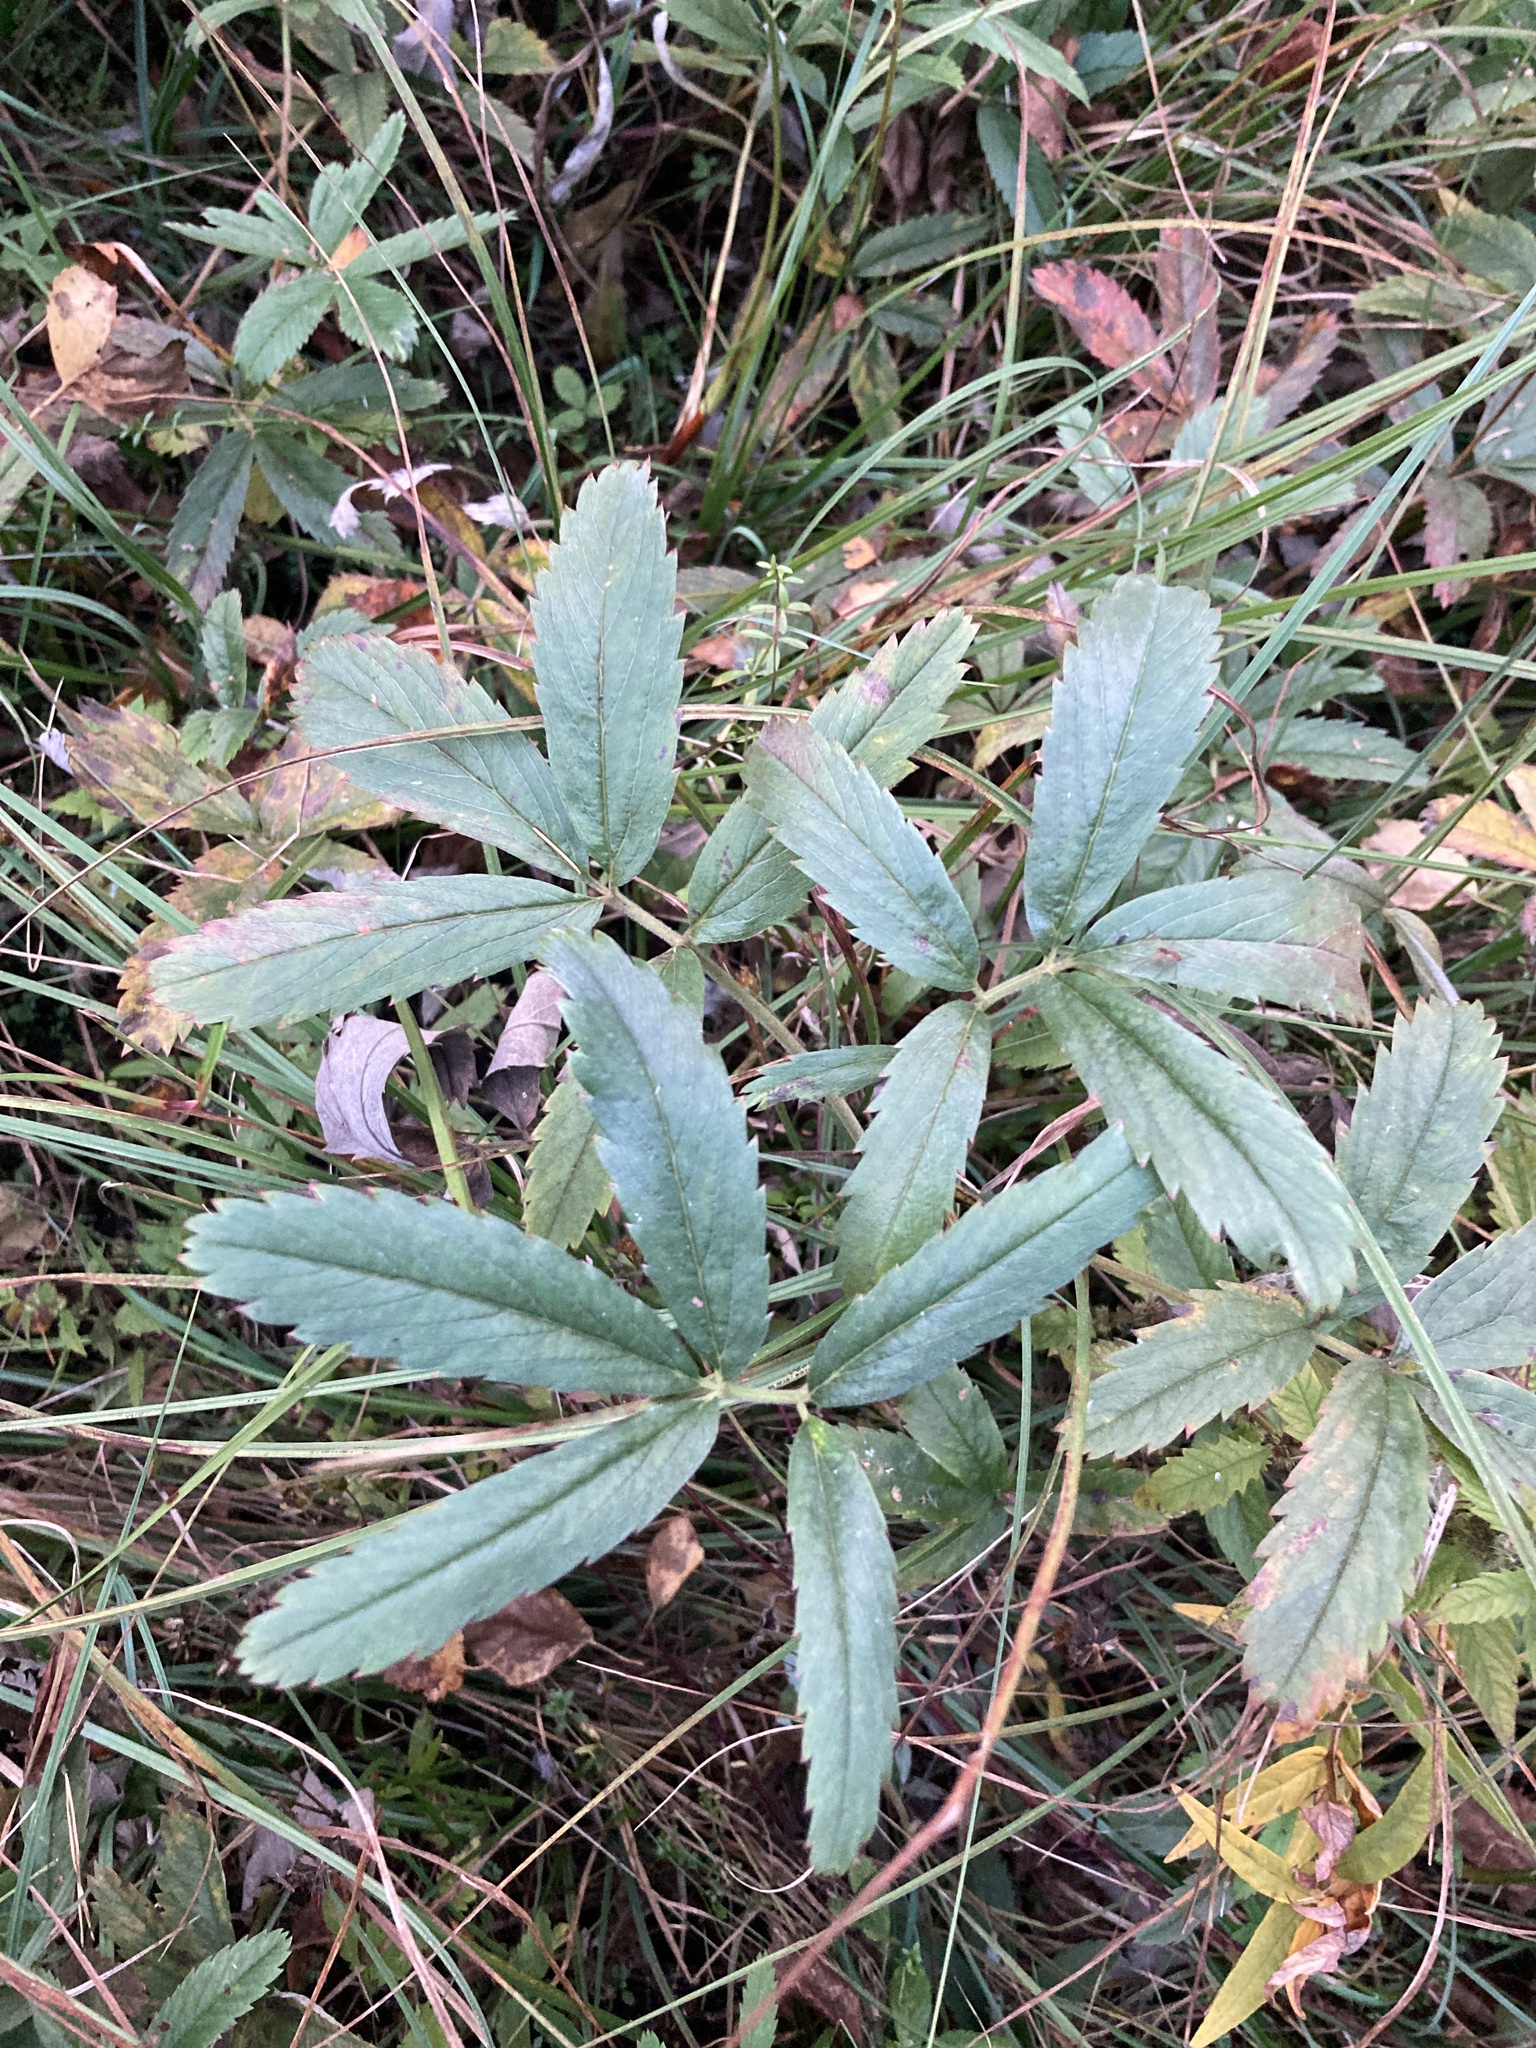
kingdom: Plantae
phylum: Tracheophyta
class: Magnoliopsida
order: Rosales
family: Rosaceae
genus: Comarum
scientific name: Comarum palustre
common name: Marsh cinquefoil
